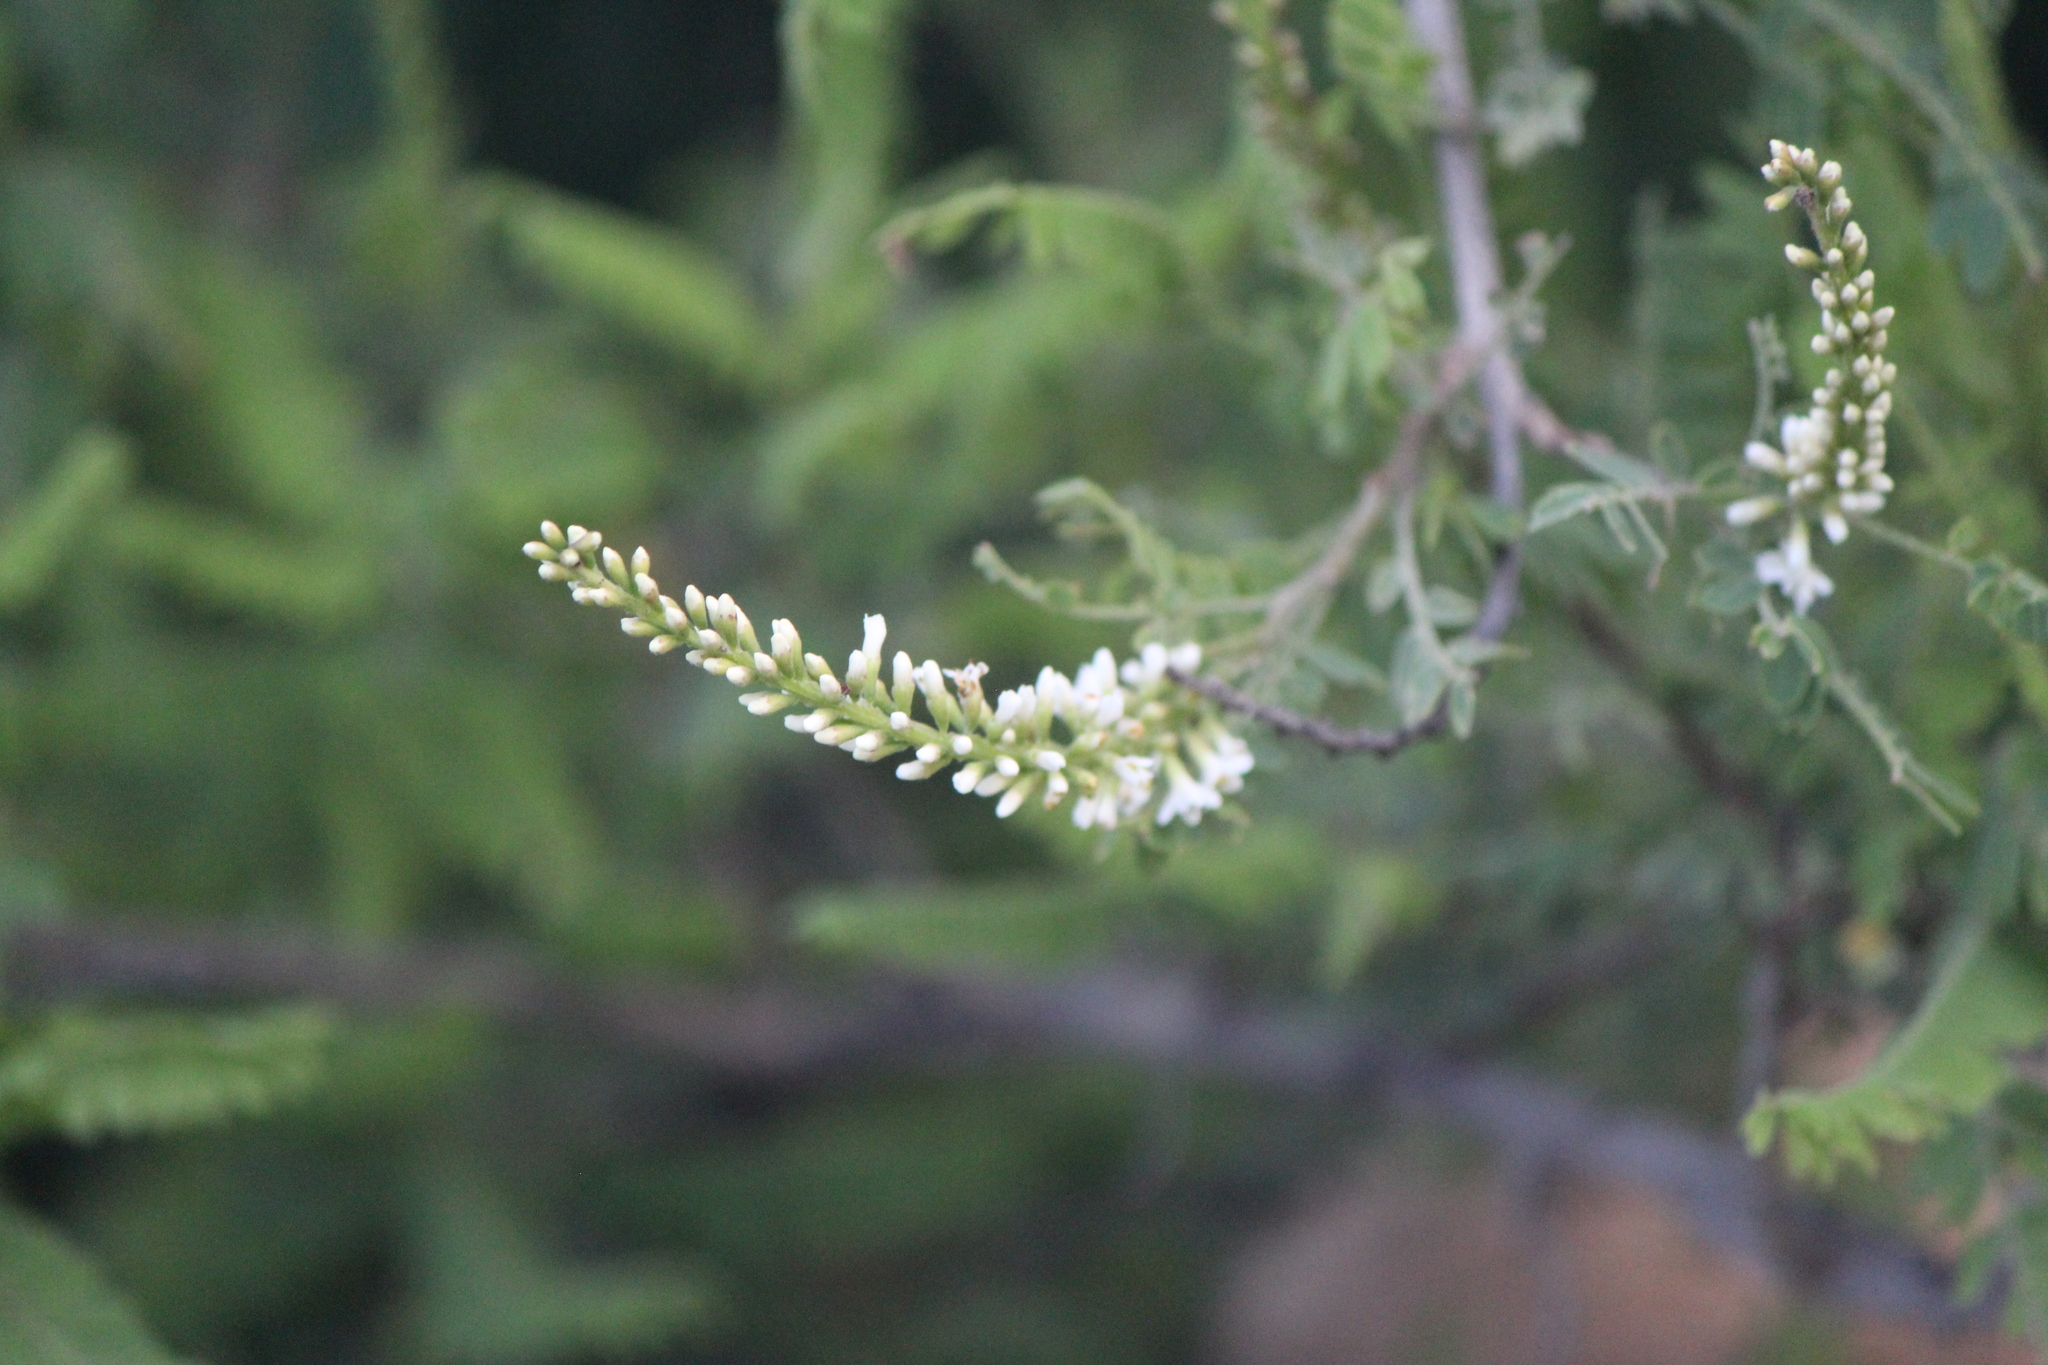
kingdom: Plantae
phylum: Tracheophyta
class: Magnoliopsida
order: Fabales
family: Fabaceae
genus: Eysenhardtia
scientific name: Eysenhardtia polystachya
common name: Kidneywood
